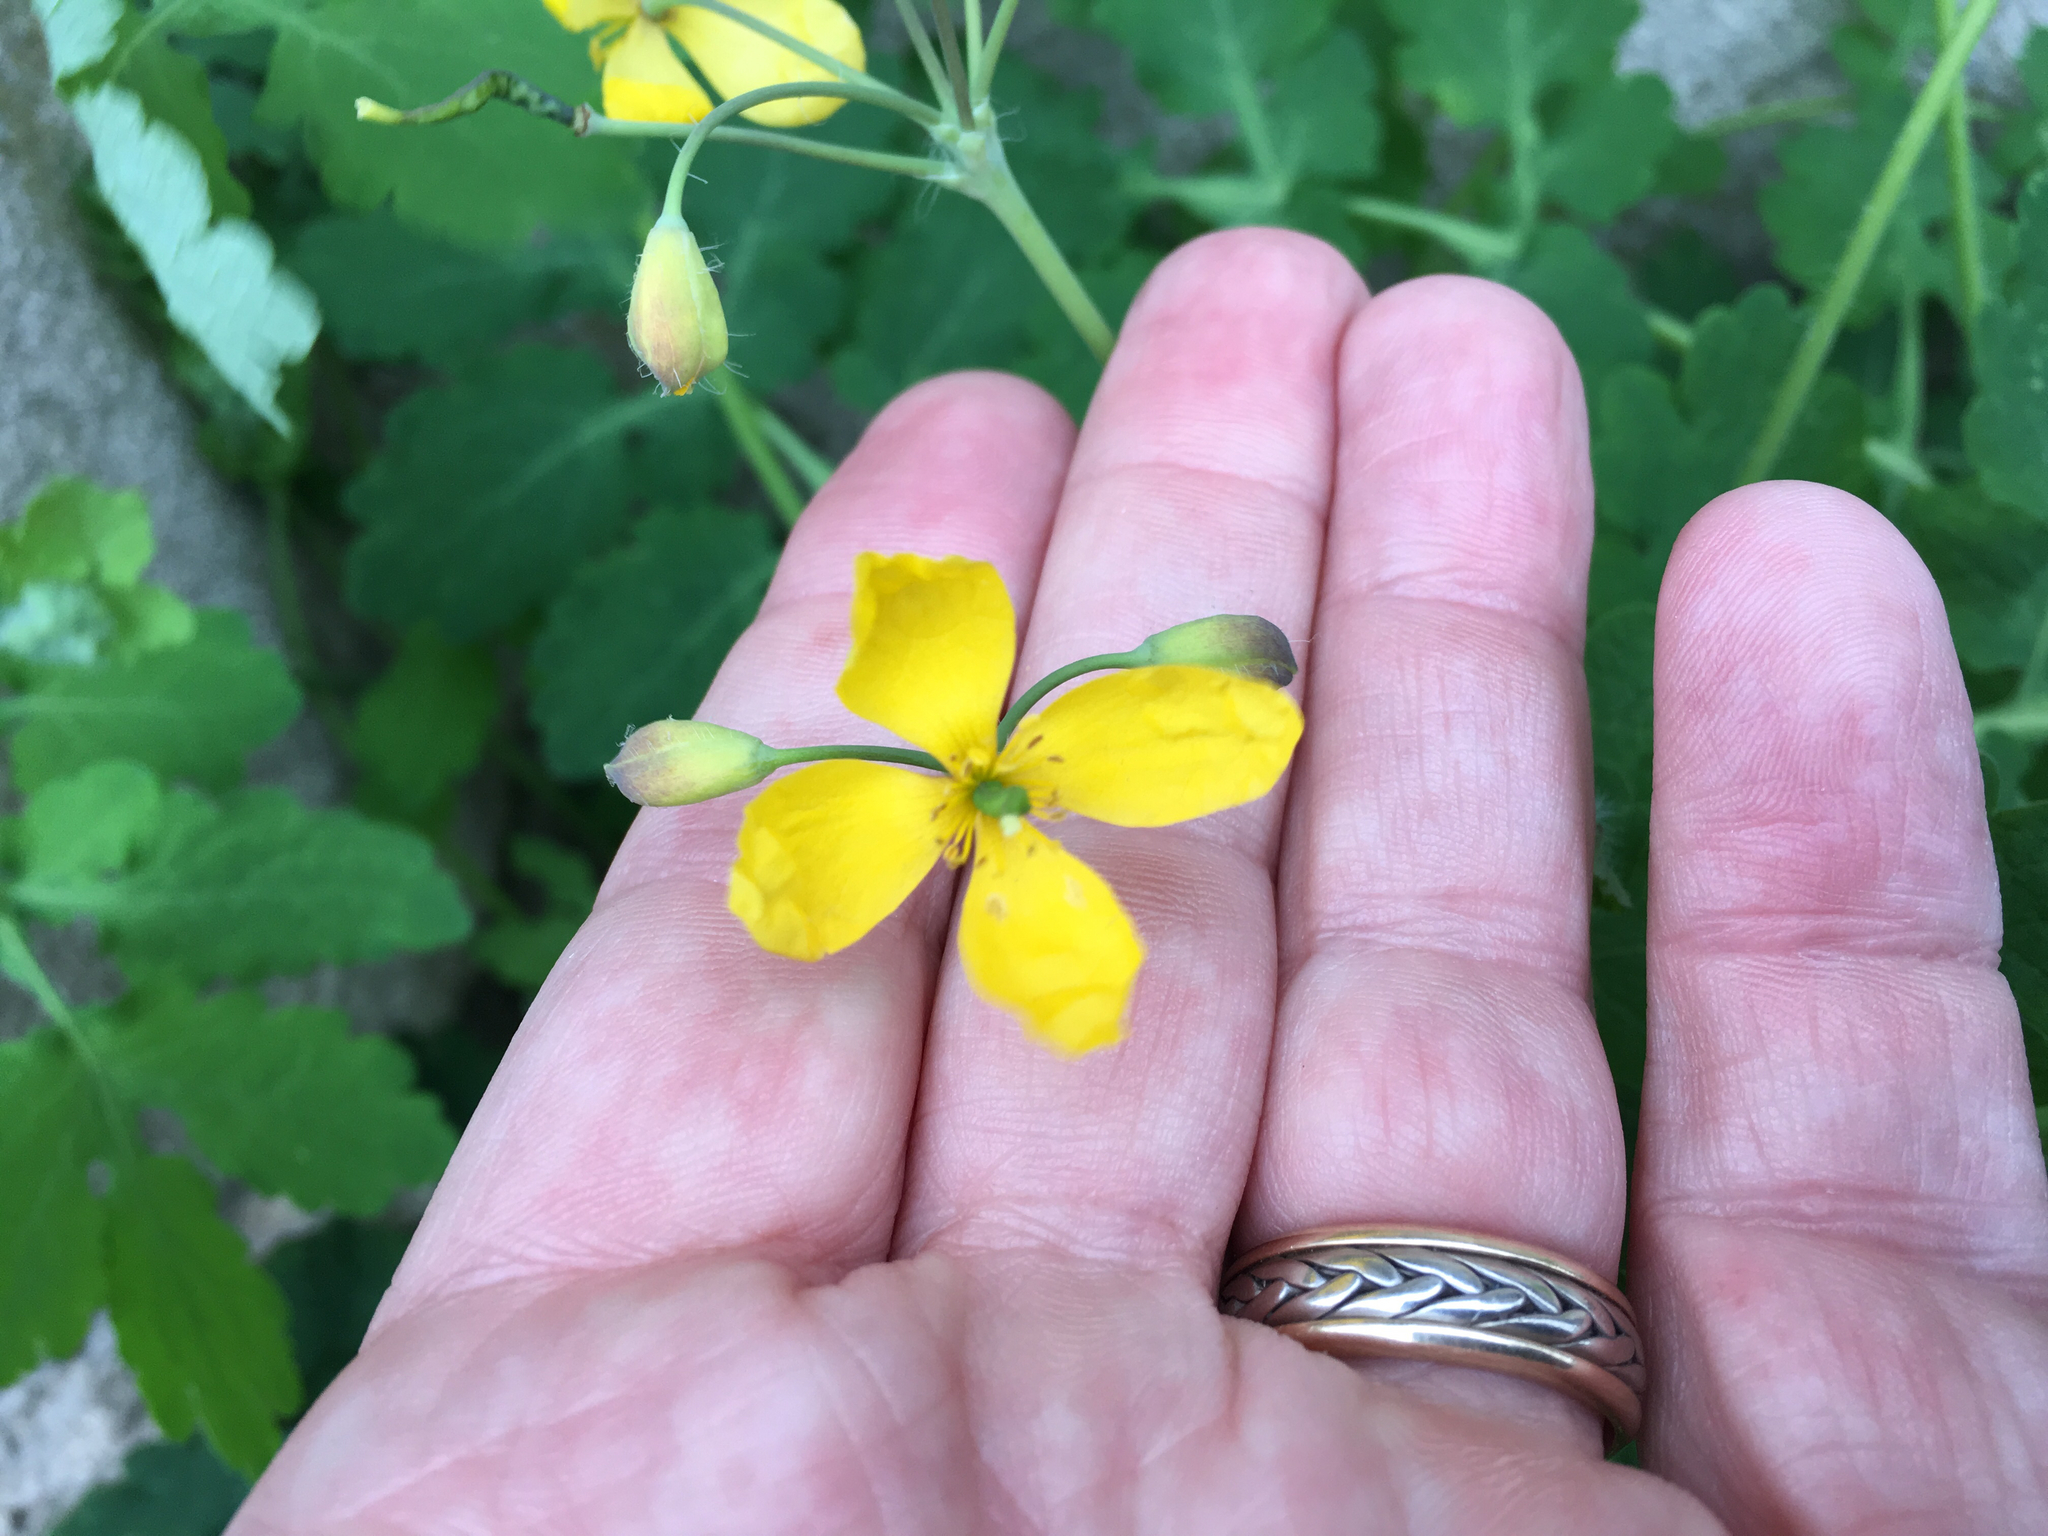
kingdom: Plantae
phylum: Tracheophyta
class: Magnoliopsida
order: Ranunculales
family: Papaveraceae
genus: Chelidonium
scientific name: Chelidonium majus
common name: Greater celandine
